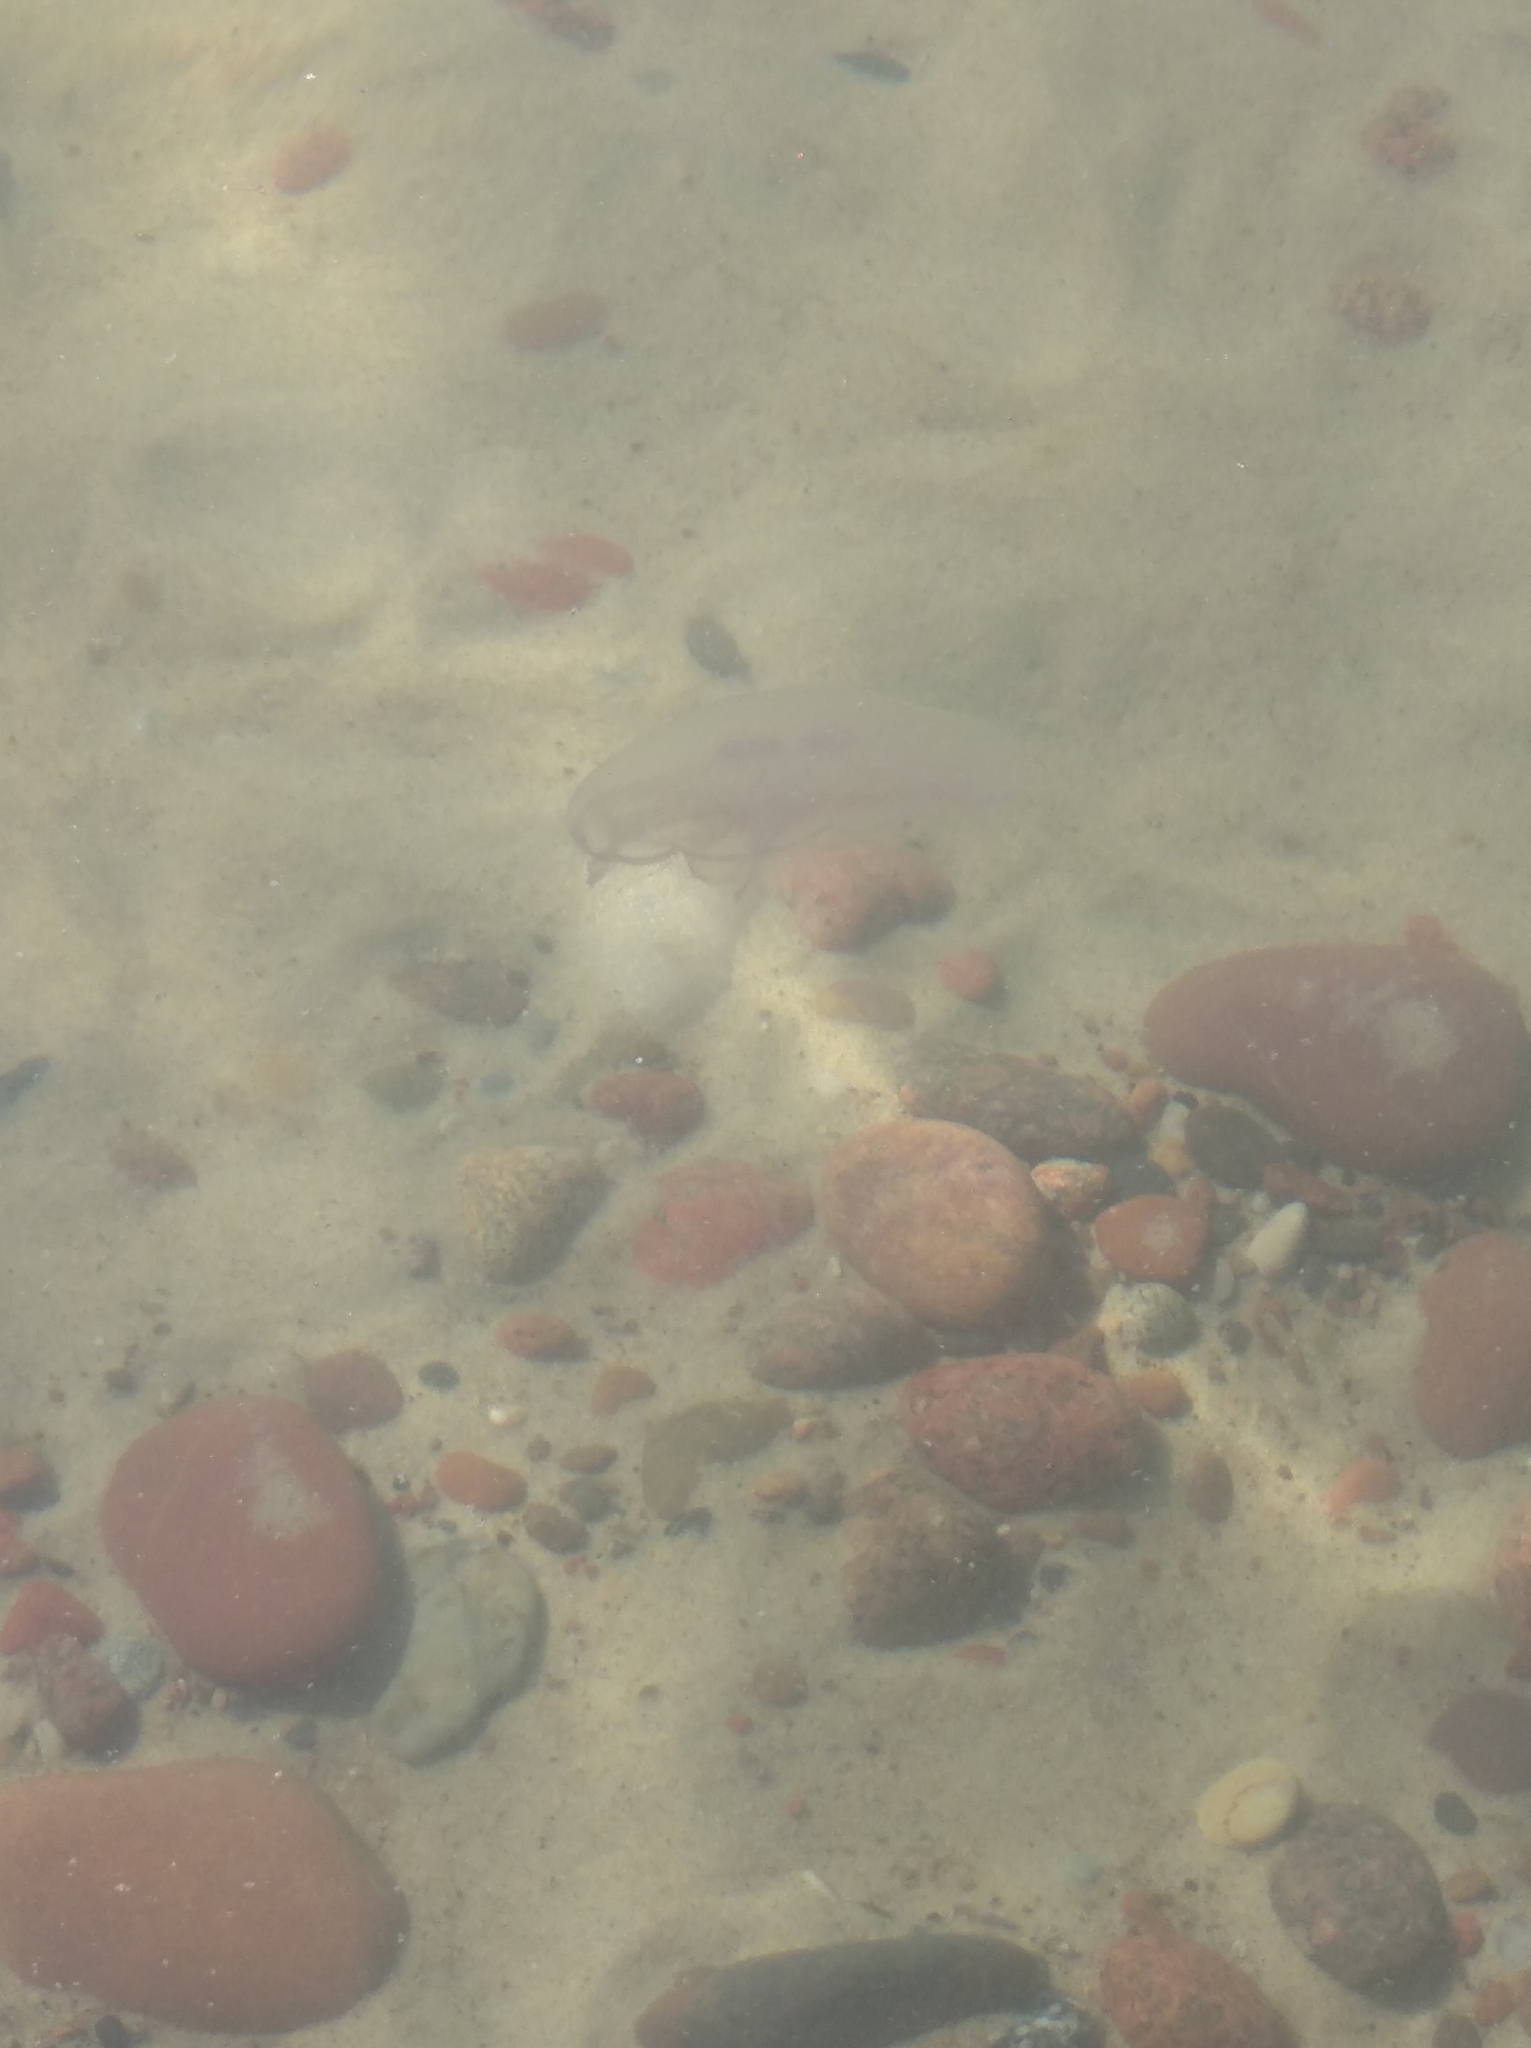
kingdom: Animalia
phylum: Cnidaria
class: Scyphozoa
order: Semaeostomeae
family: Ulmaridae
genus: Aurelia
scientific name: Aurelia aurita
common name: Moon jellyfish
